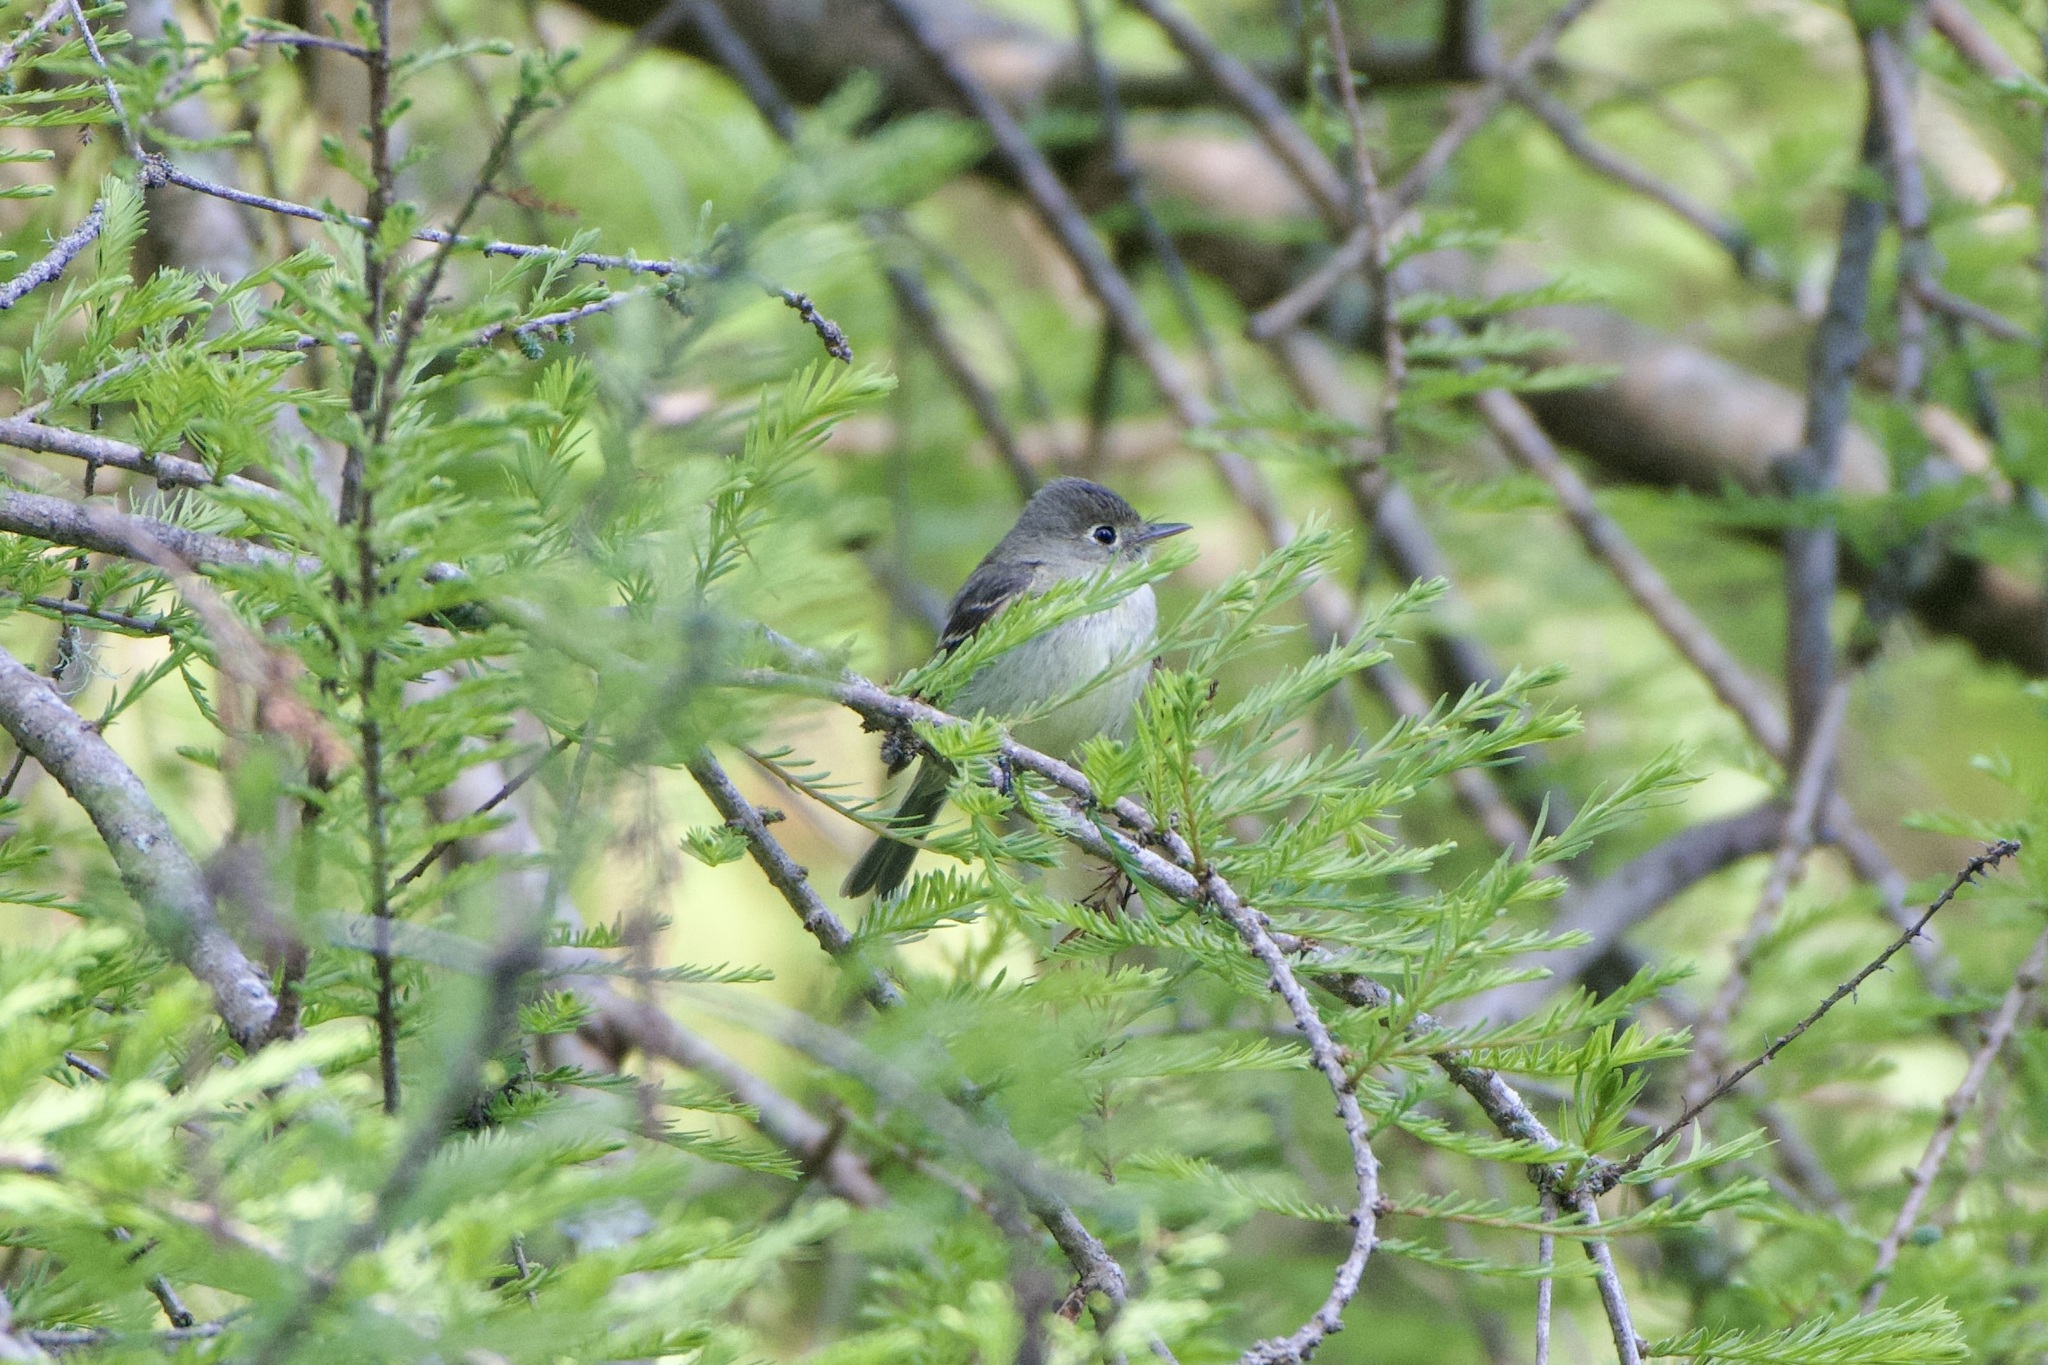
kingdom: Animalia
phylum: Chordata
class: Aves
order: Passeriformes
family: Tyrannidae
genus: Empidonax
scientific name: Empidonax difficilis
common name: Pacific-slope flycatcher
